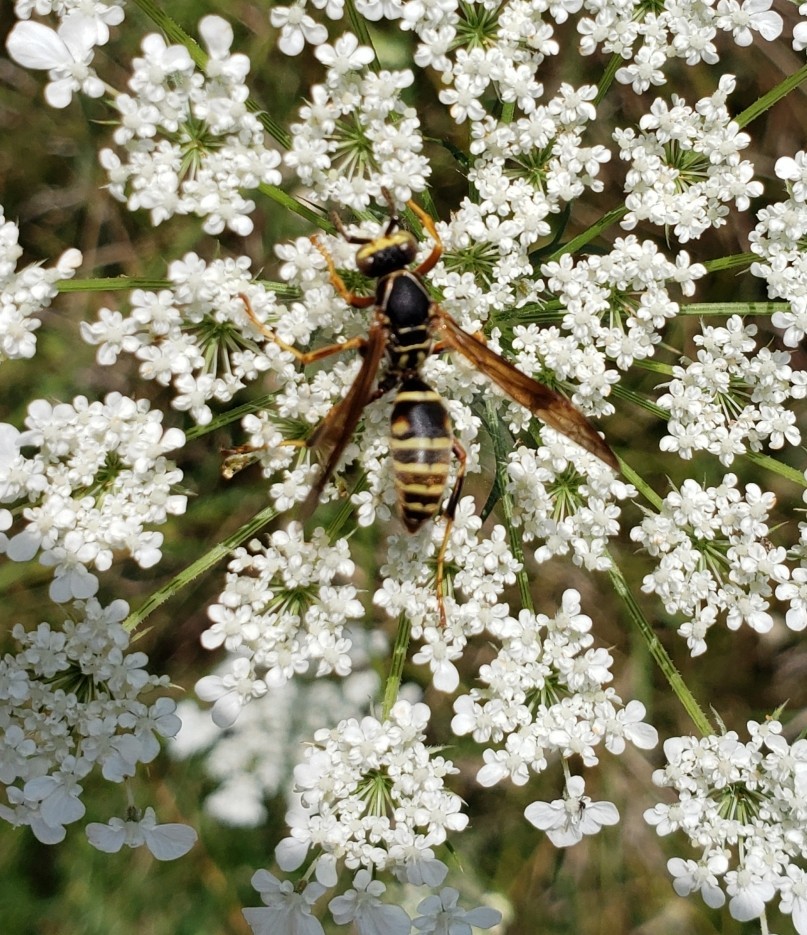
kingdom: Animalia
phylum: Arthropoda
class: Insecta
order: Hymenoptera
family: Eumenidae
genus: Polistes
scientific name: Polistes fuscatus
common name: Dark paper wasp
